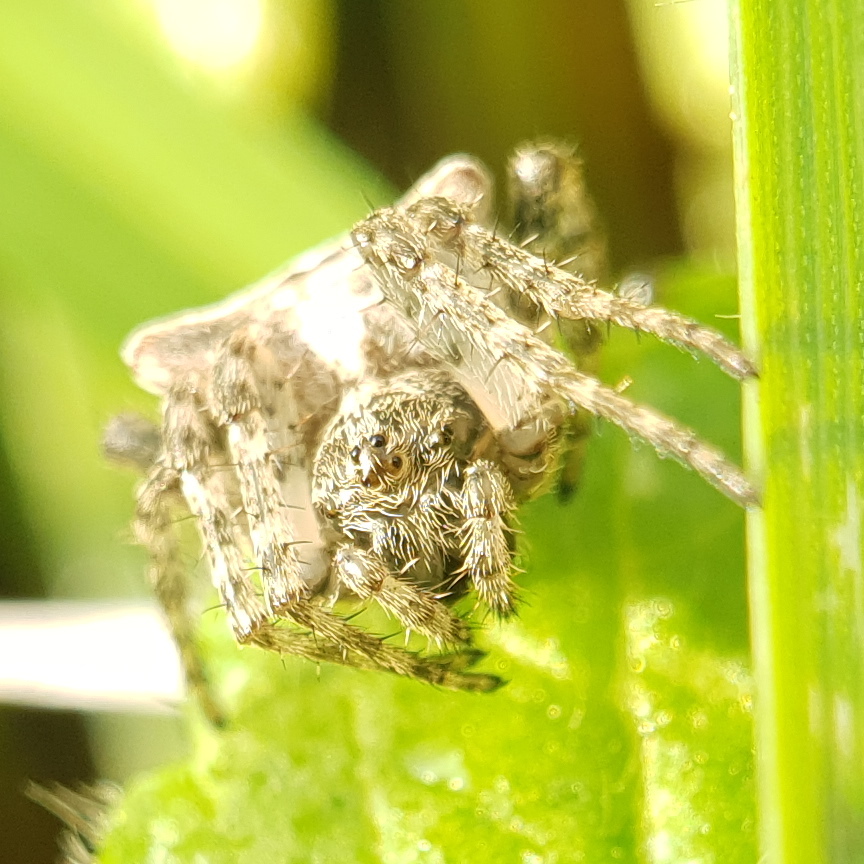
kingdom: Animalia
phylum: Arthropoda
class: Arachnida
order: Araneae
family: Araneidae
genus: Gibbaranea
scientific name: Gibbaranea bituberculata
